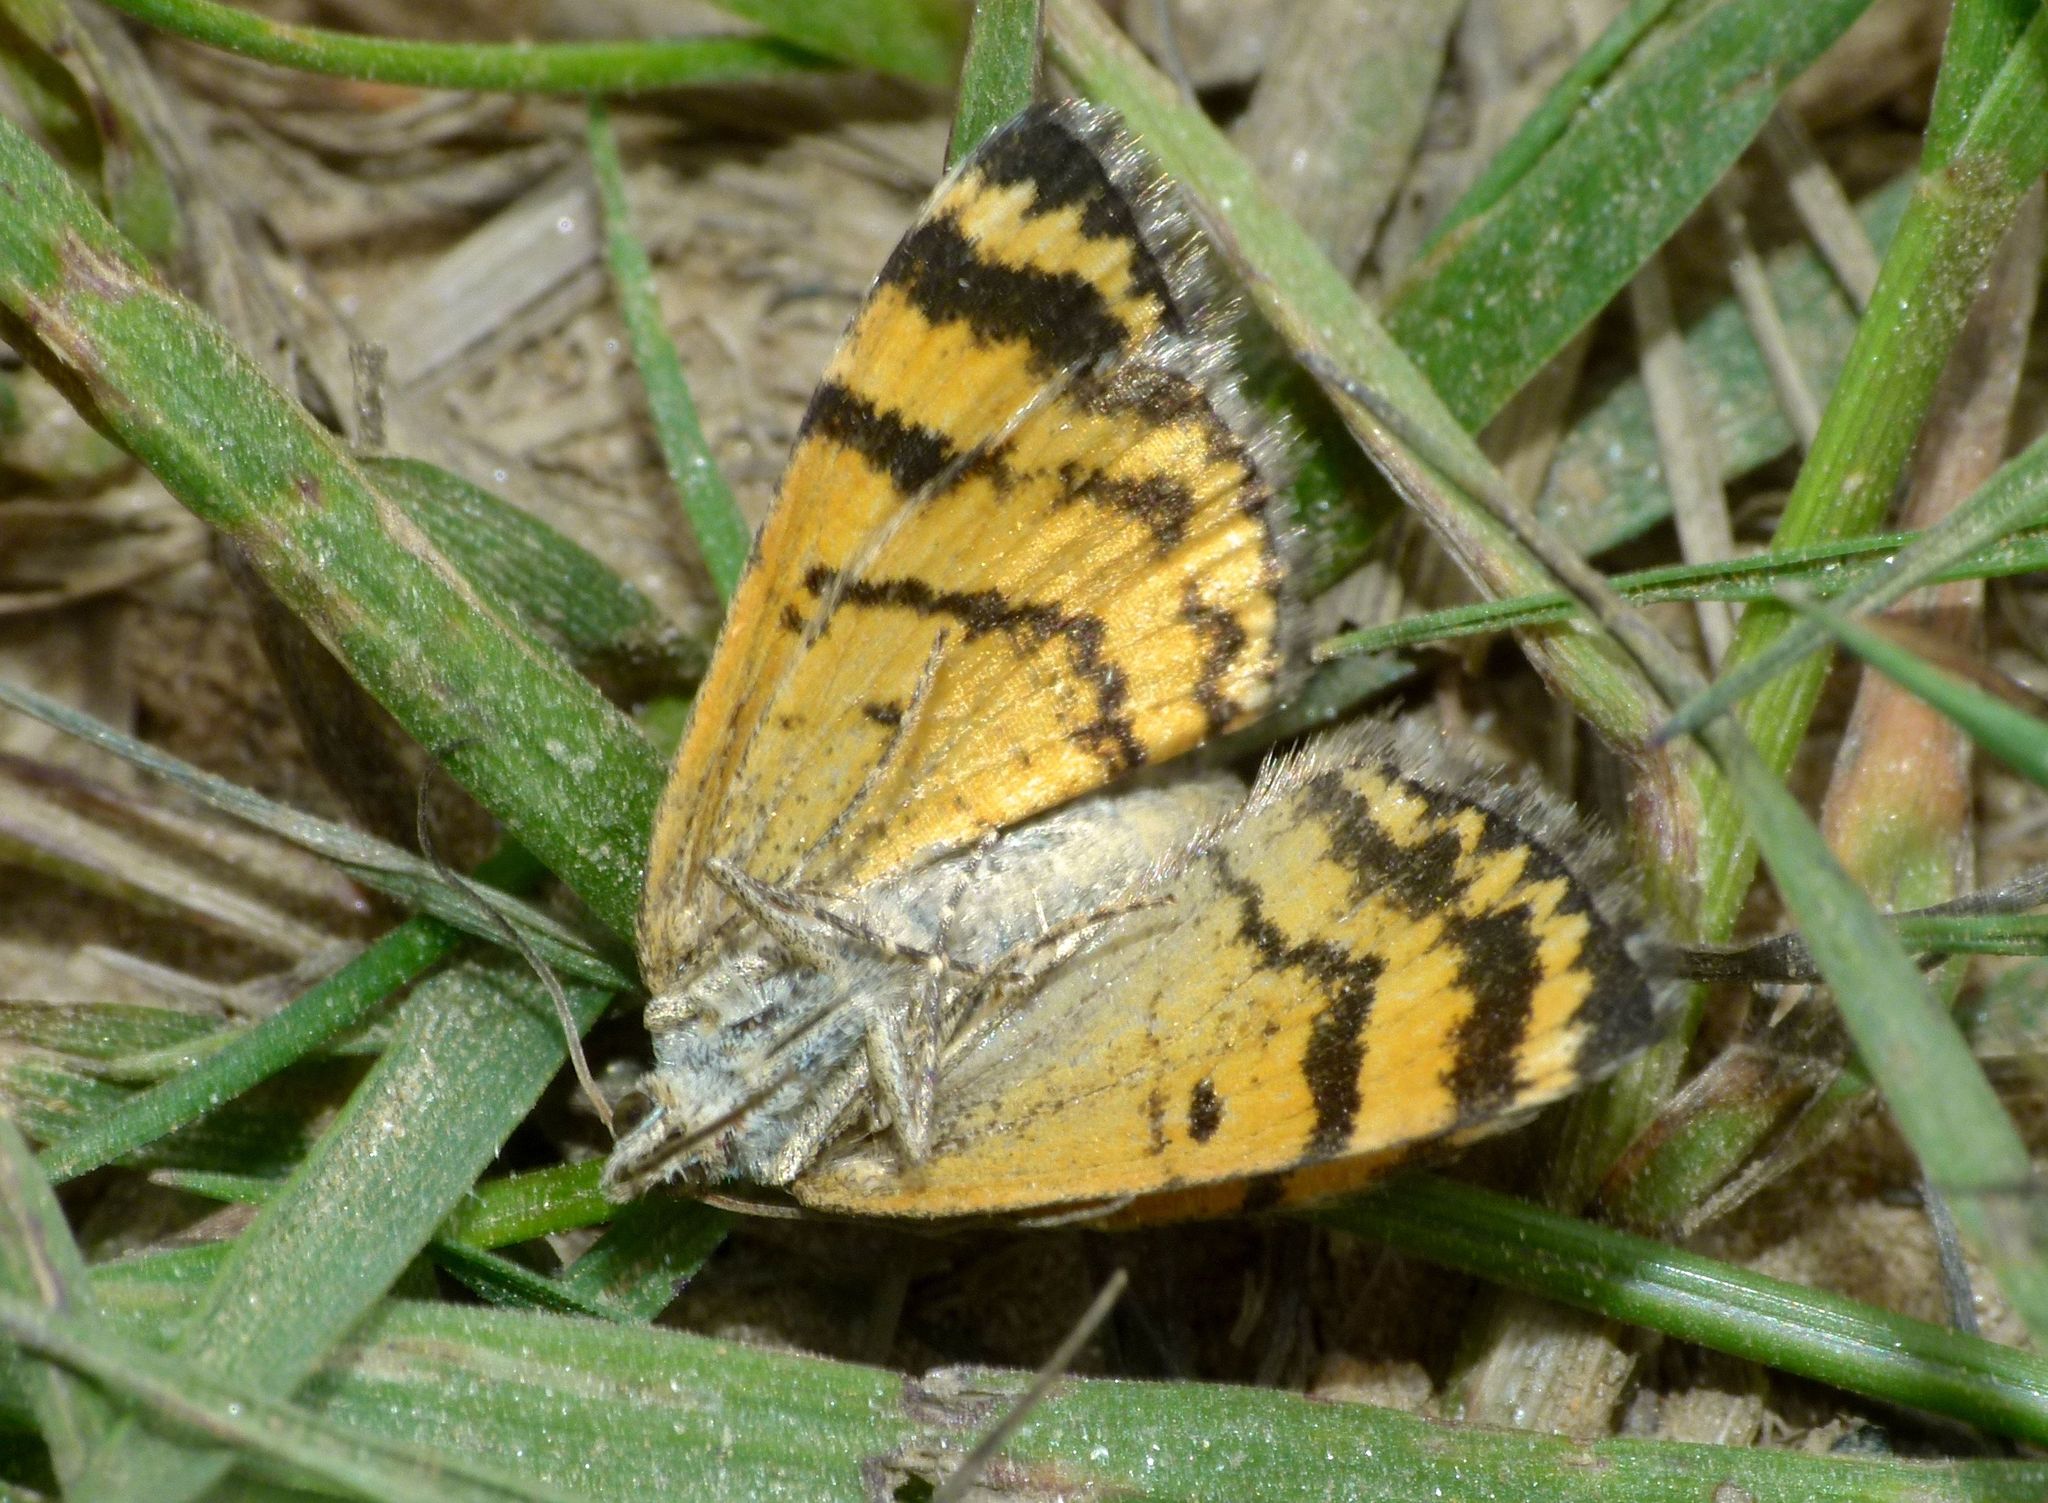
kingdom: Animalia
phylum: Arthropoda
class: Insecta
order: Lepidoptera
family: Geometridae
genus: Dasyuris
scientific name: Dasyuris anceps
